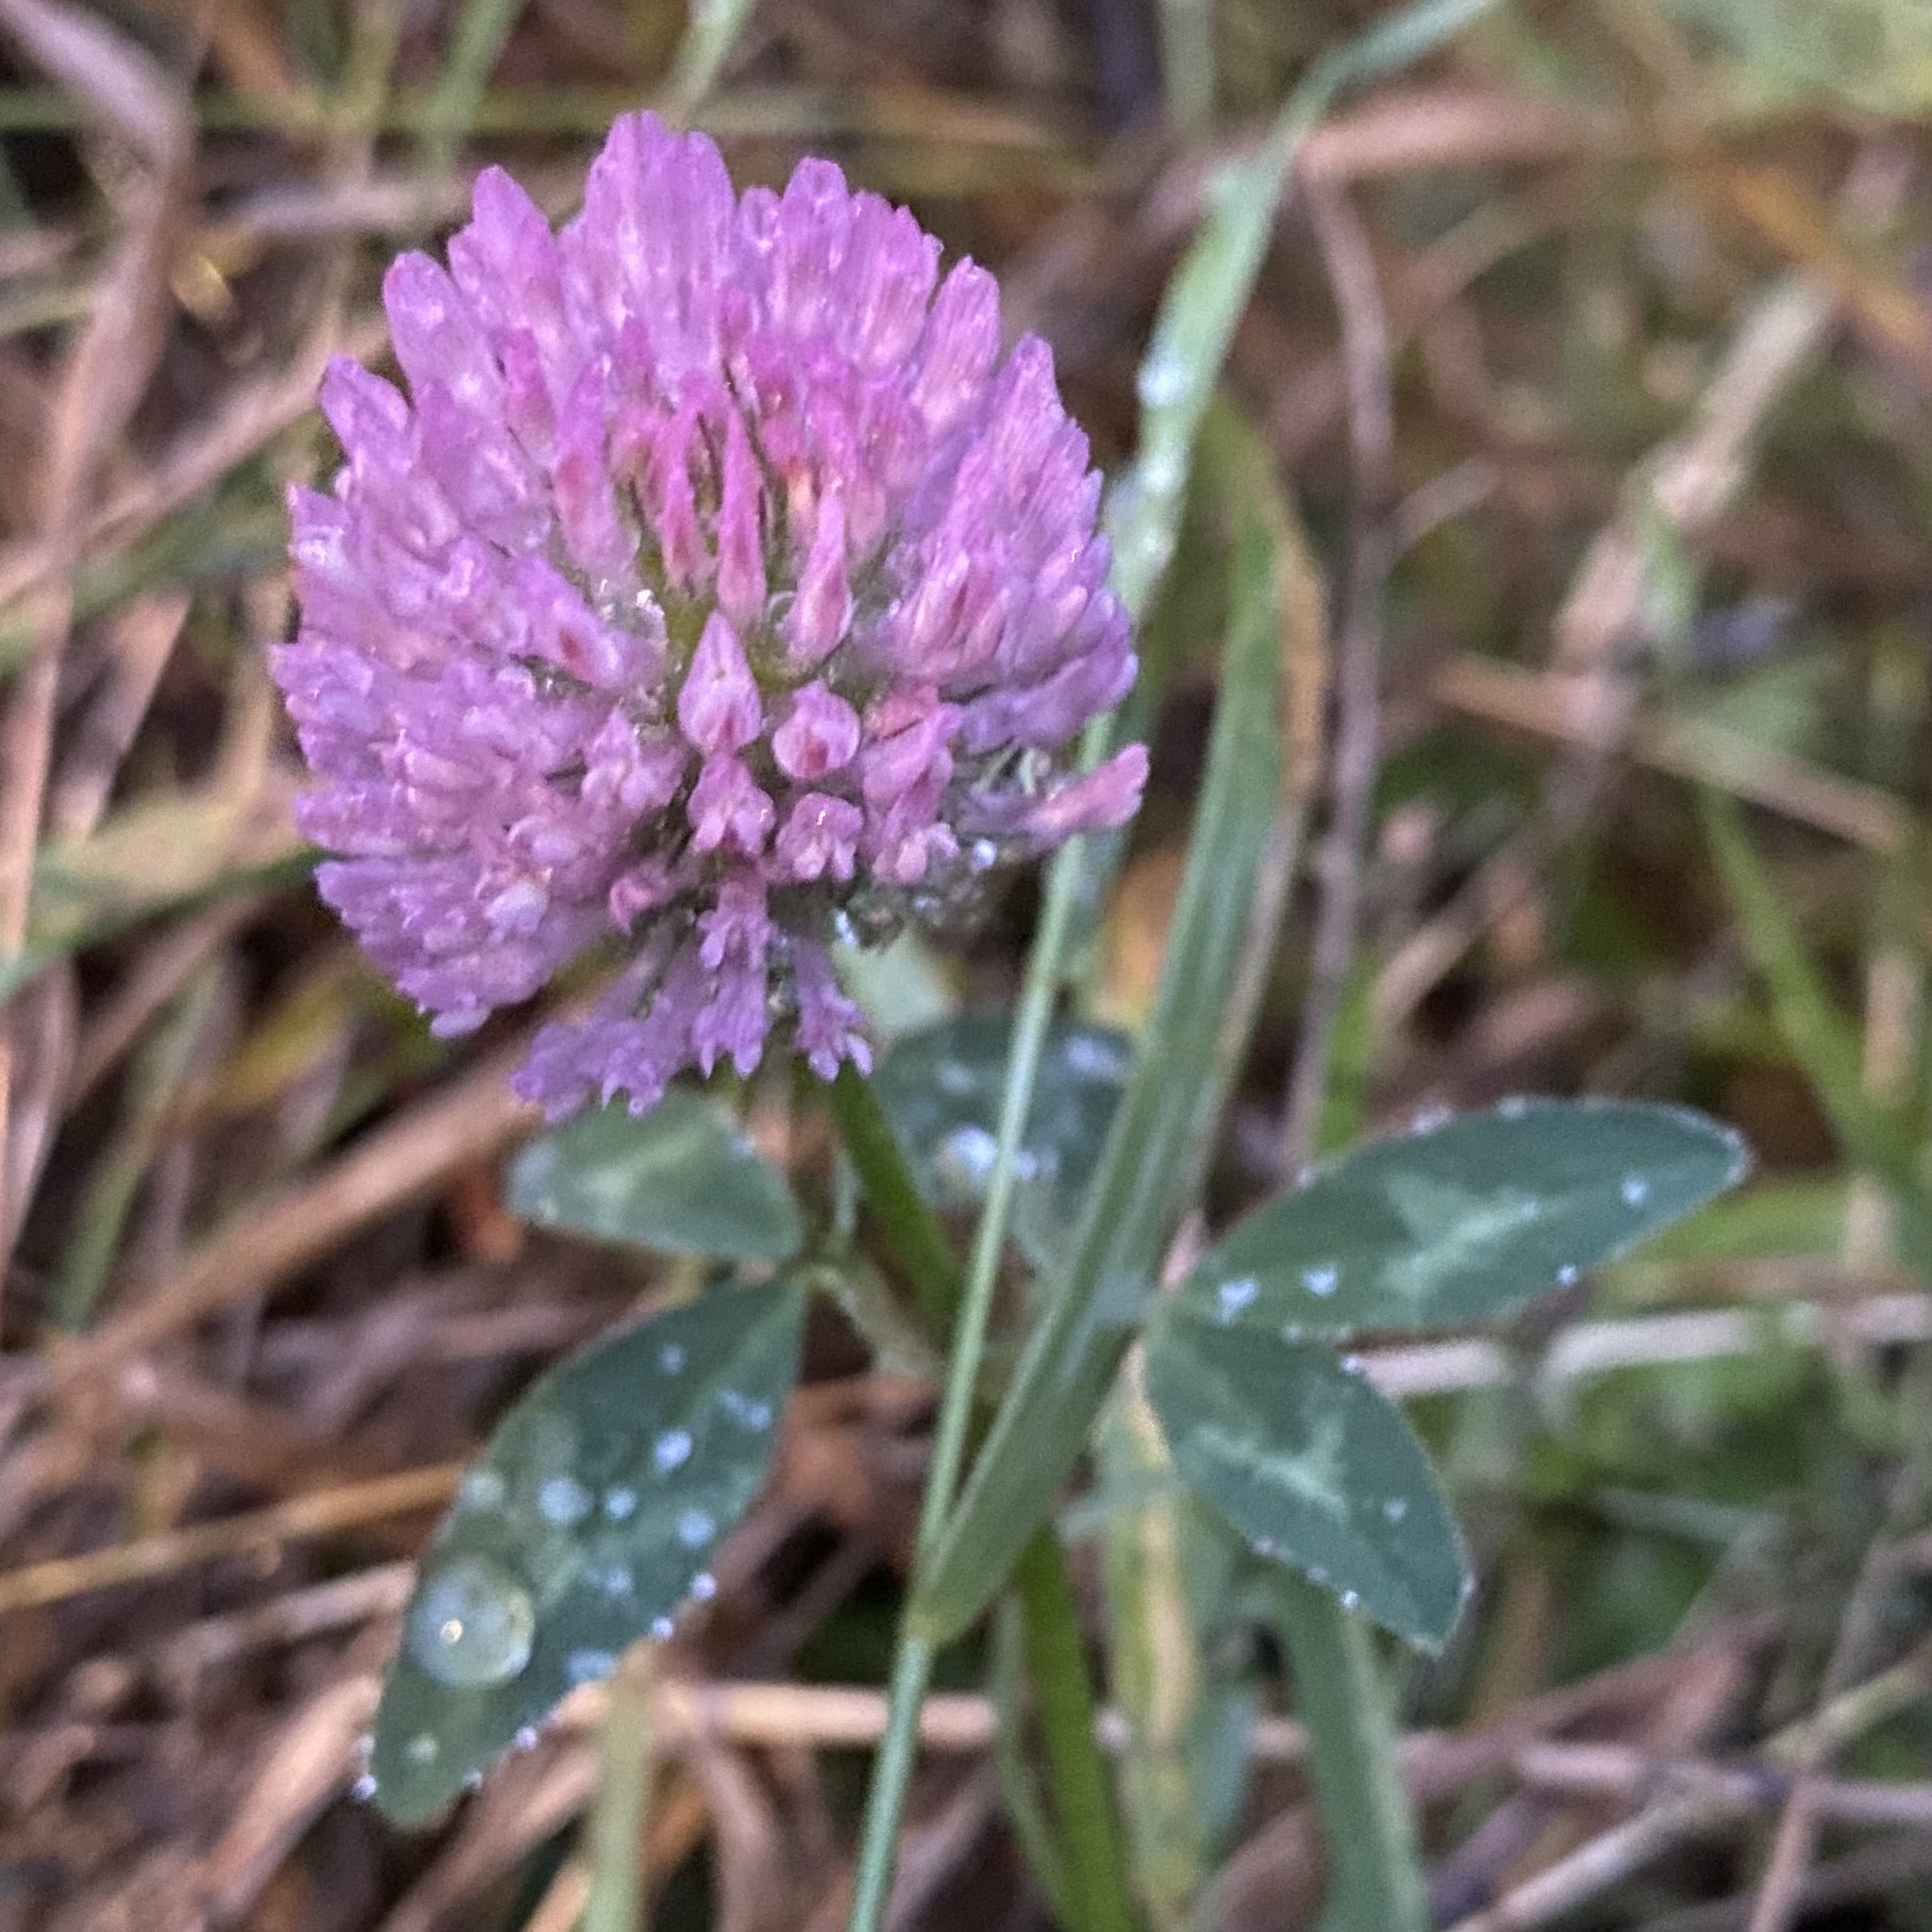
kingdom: Plantae
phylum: Tracheophyta
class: Magnoliopsida
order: Fabales
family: Fabaceae
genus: Trifolium
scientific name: Trifolium pratense
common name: Red clover
